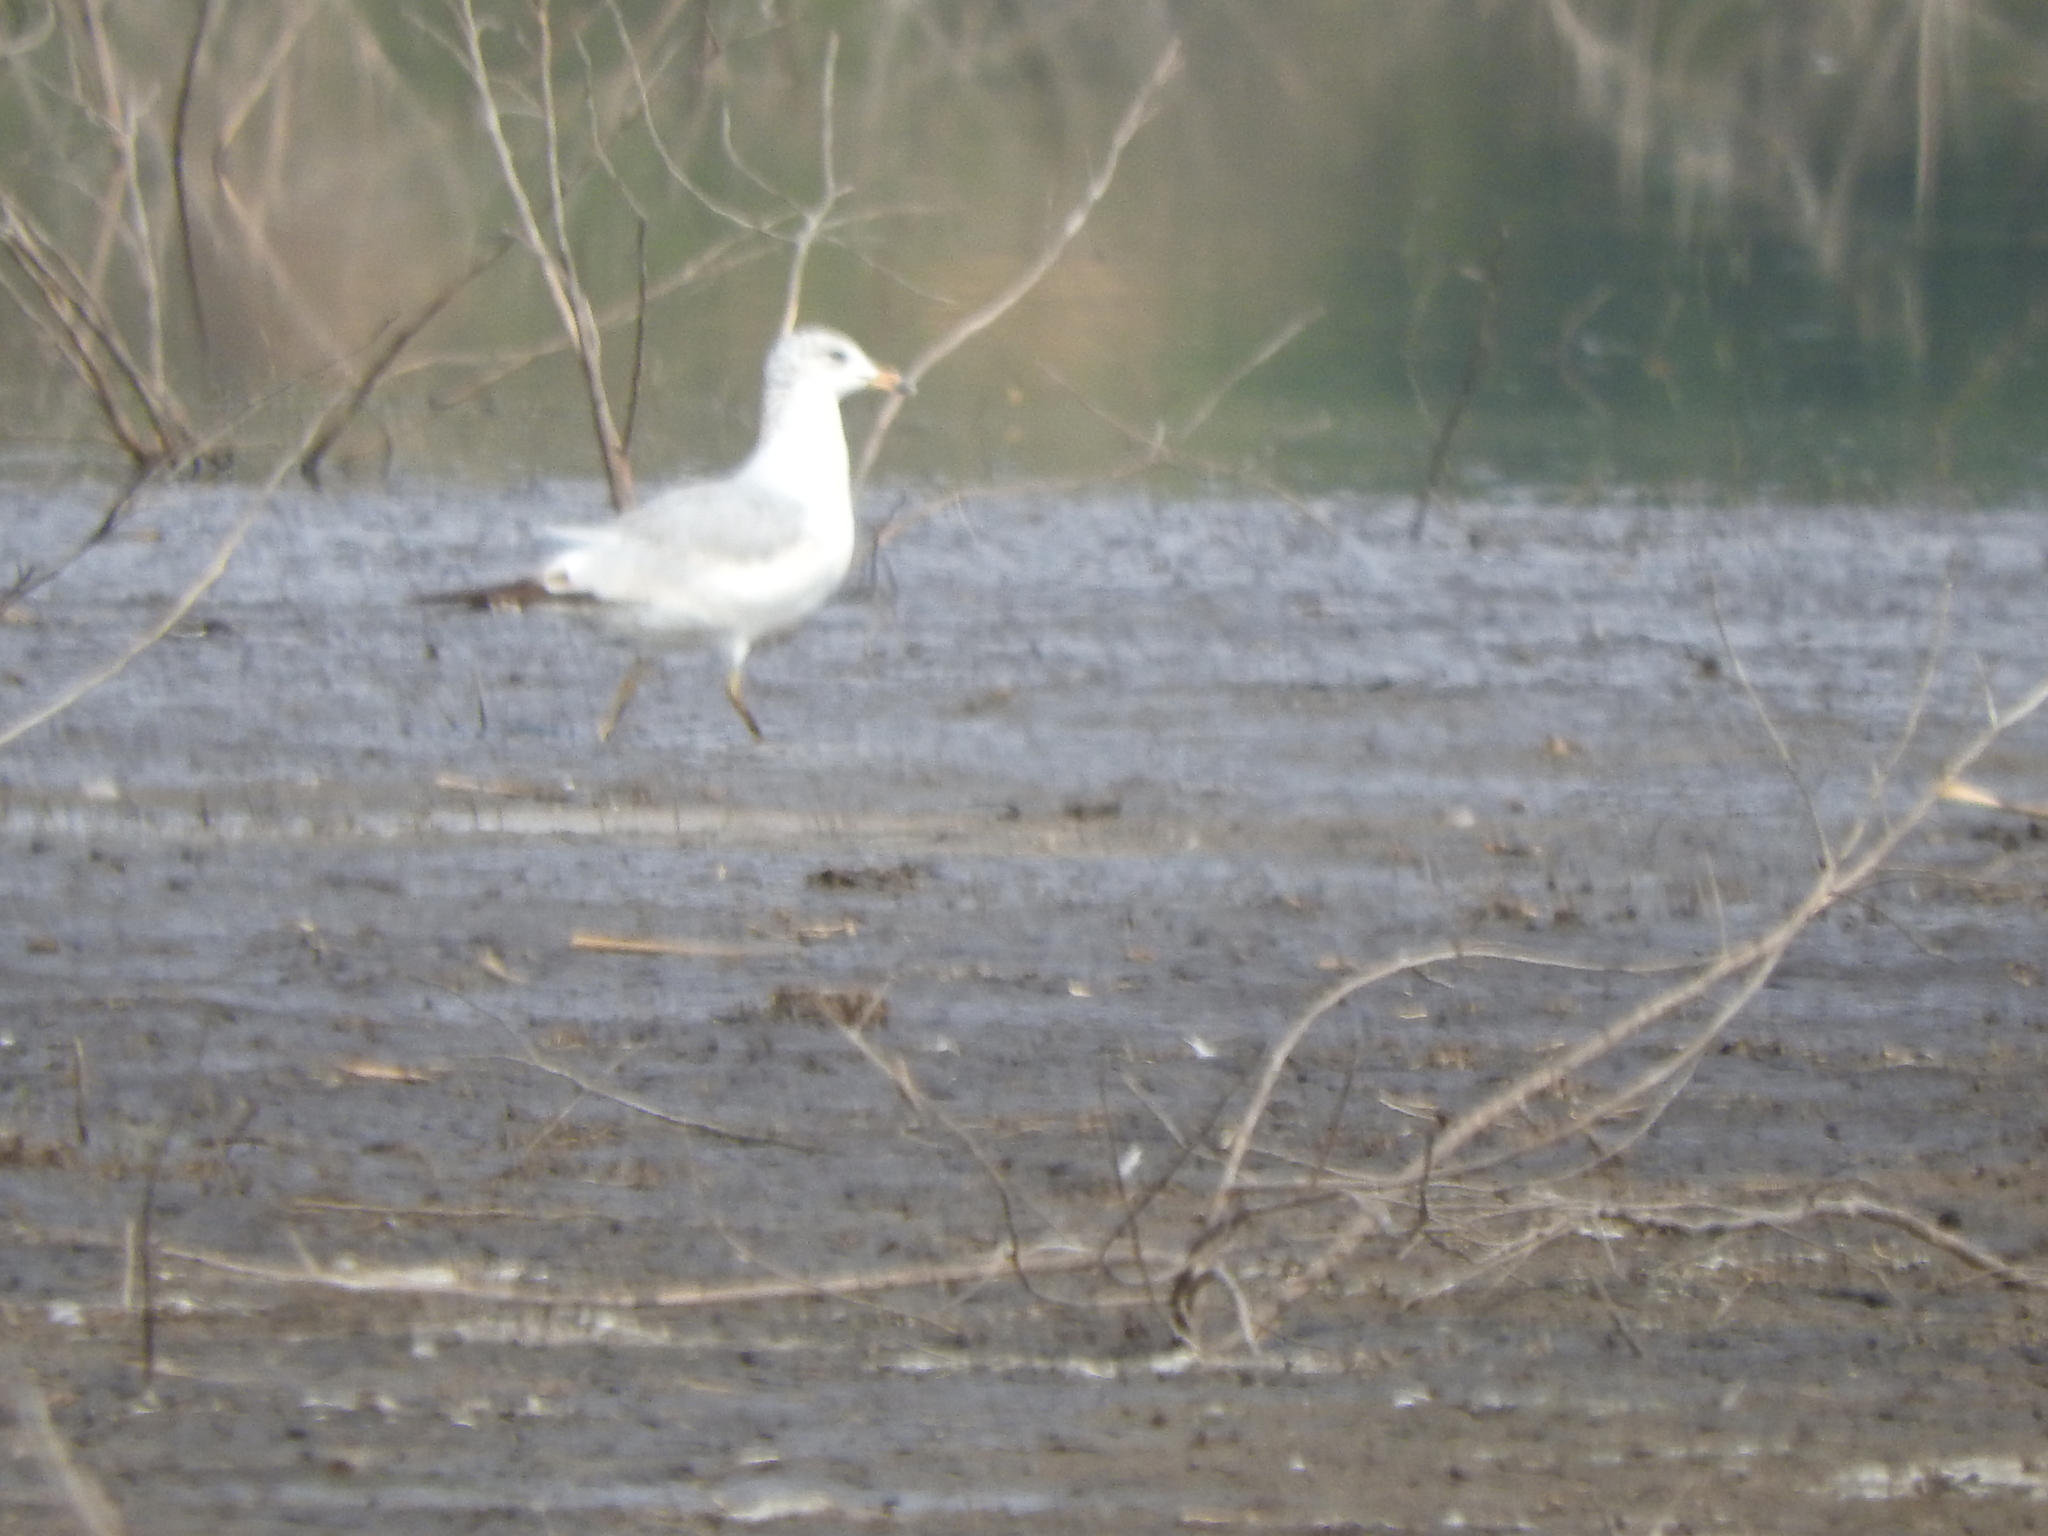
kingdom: Animalia
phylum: Chordata
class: Aves
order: Charadriiformes
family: Laridae
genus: Larus
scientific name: Larus delawarensis
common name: Ring-billed gull
